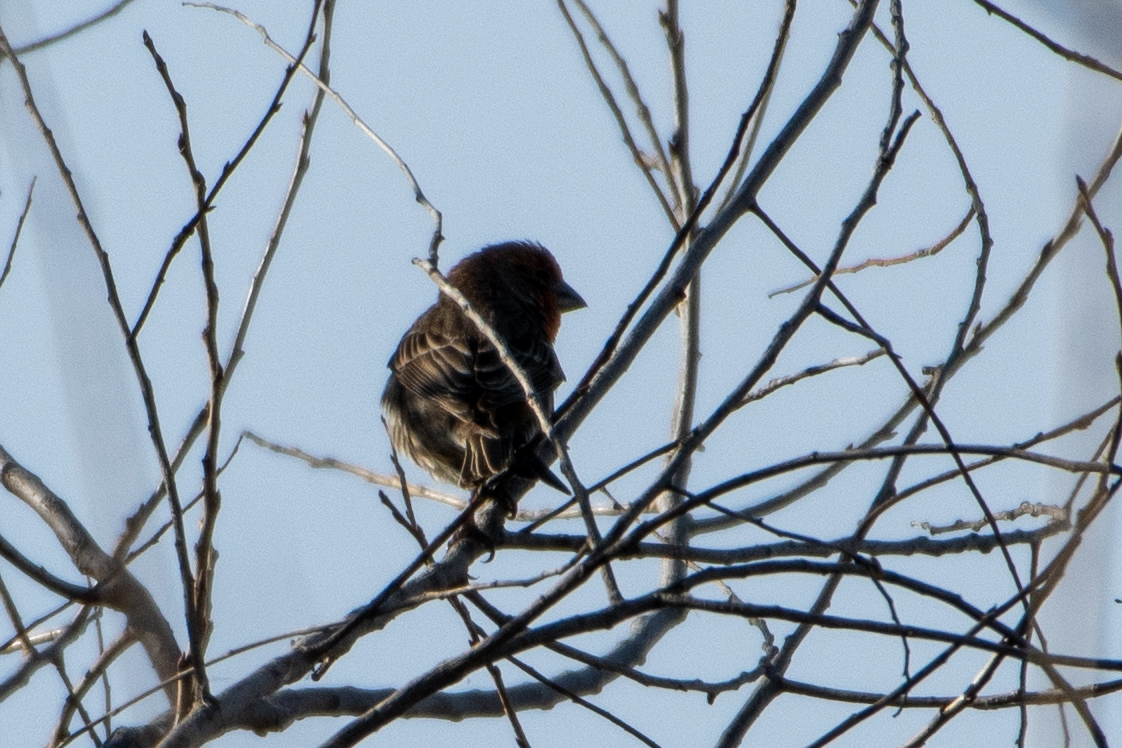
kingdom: Animalia
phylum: Chordata
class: Aves
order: Passeriformes
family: Fringillidae
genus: Haemorhous
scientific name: Haemorhous mexicanus
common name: House finch
